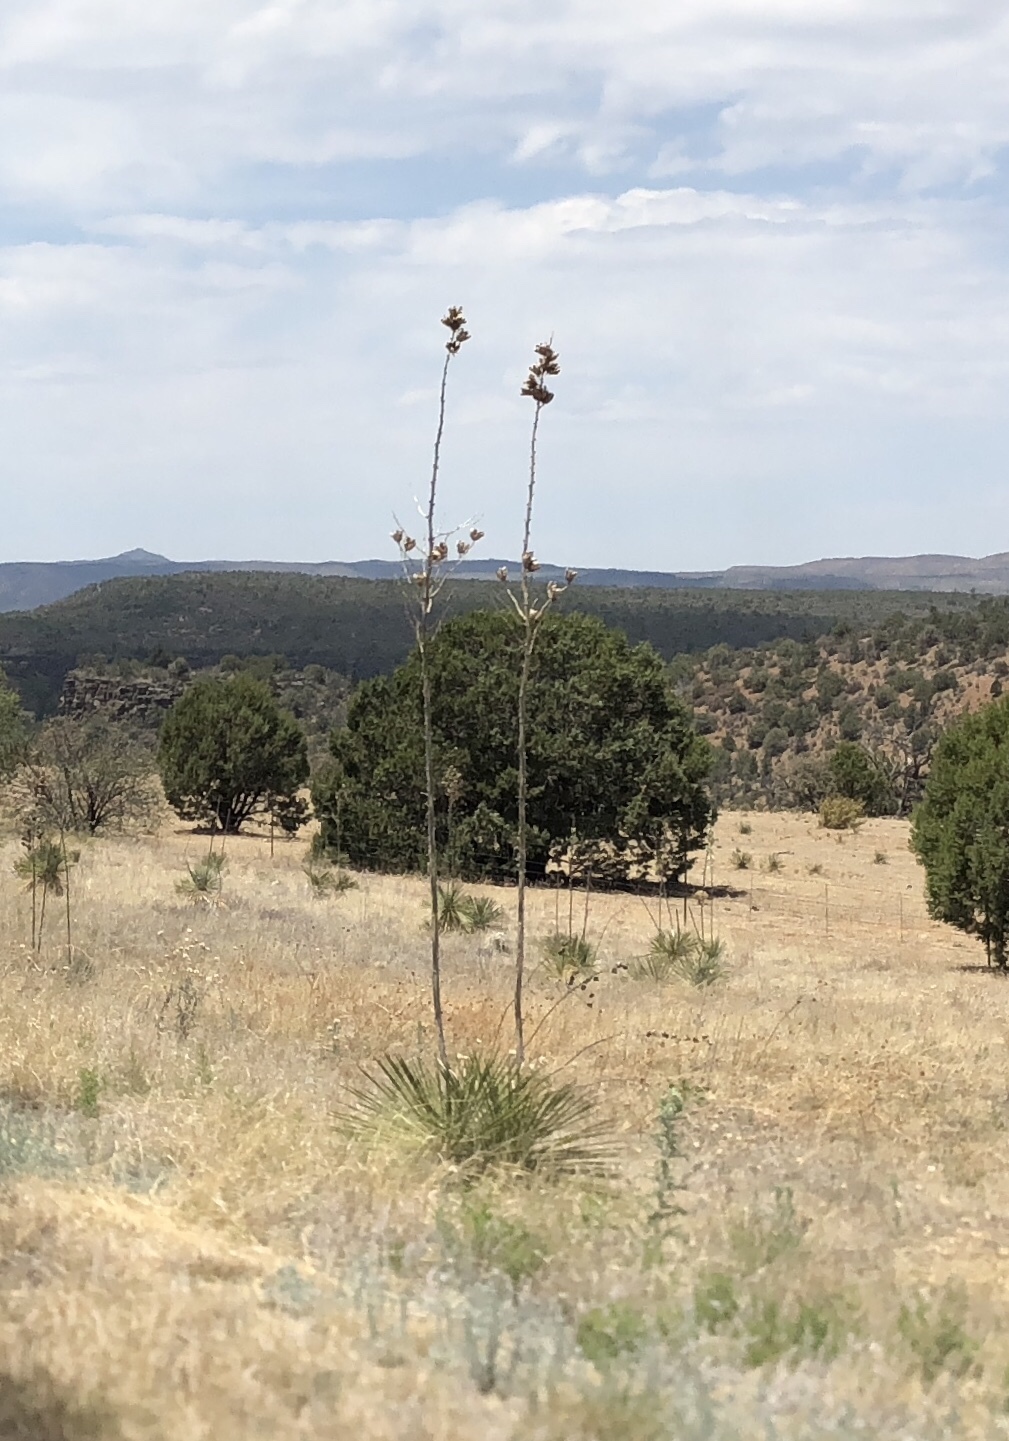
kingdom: Plantae
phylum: Tracheophyta
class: Liliopsida
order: Asparagales
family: Asparagaceae
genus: Yucca
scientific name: Yucca elata
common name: Palmella
